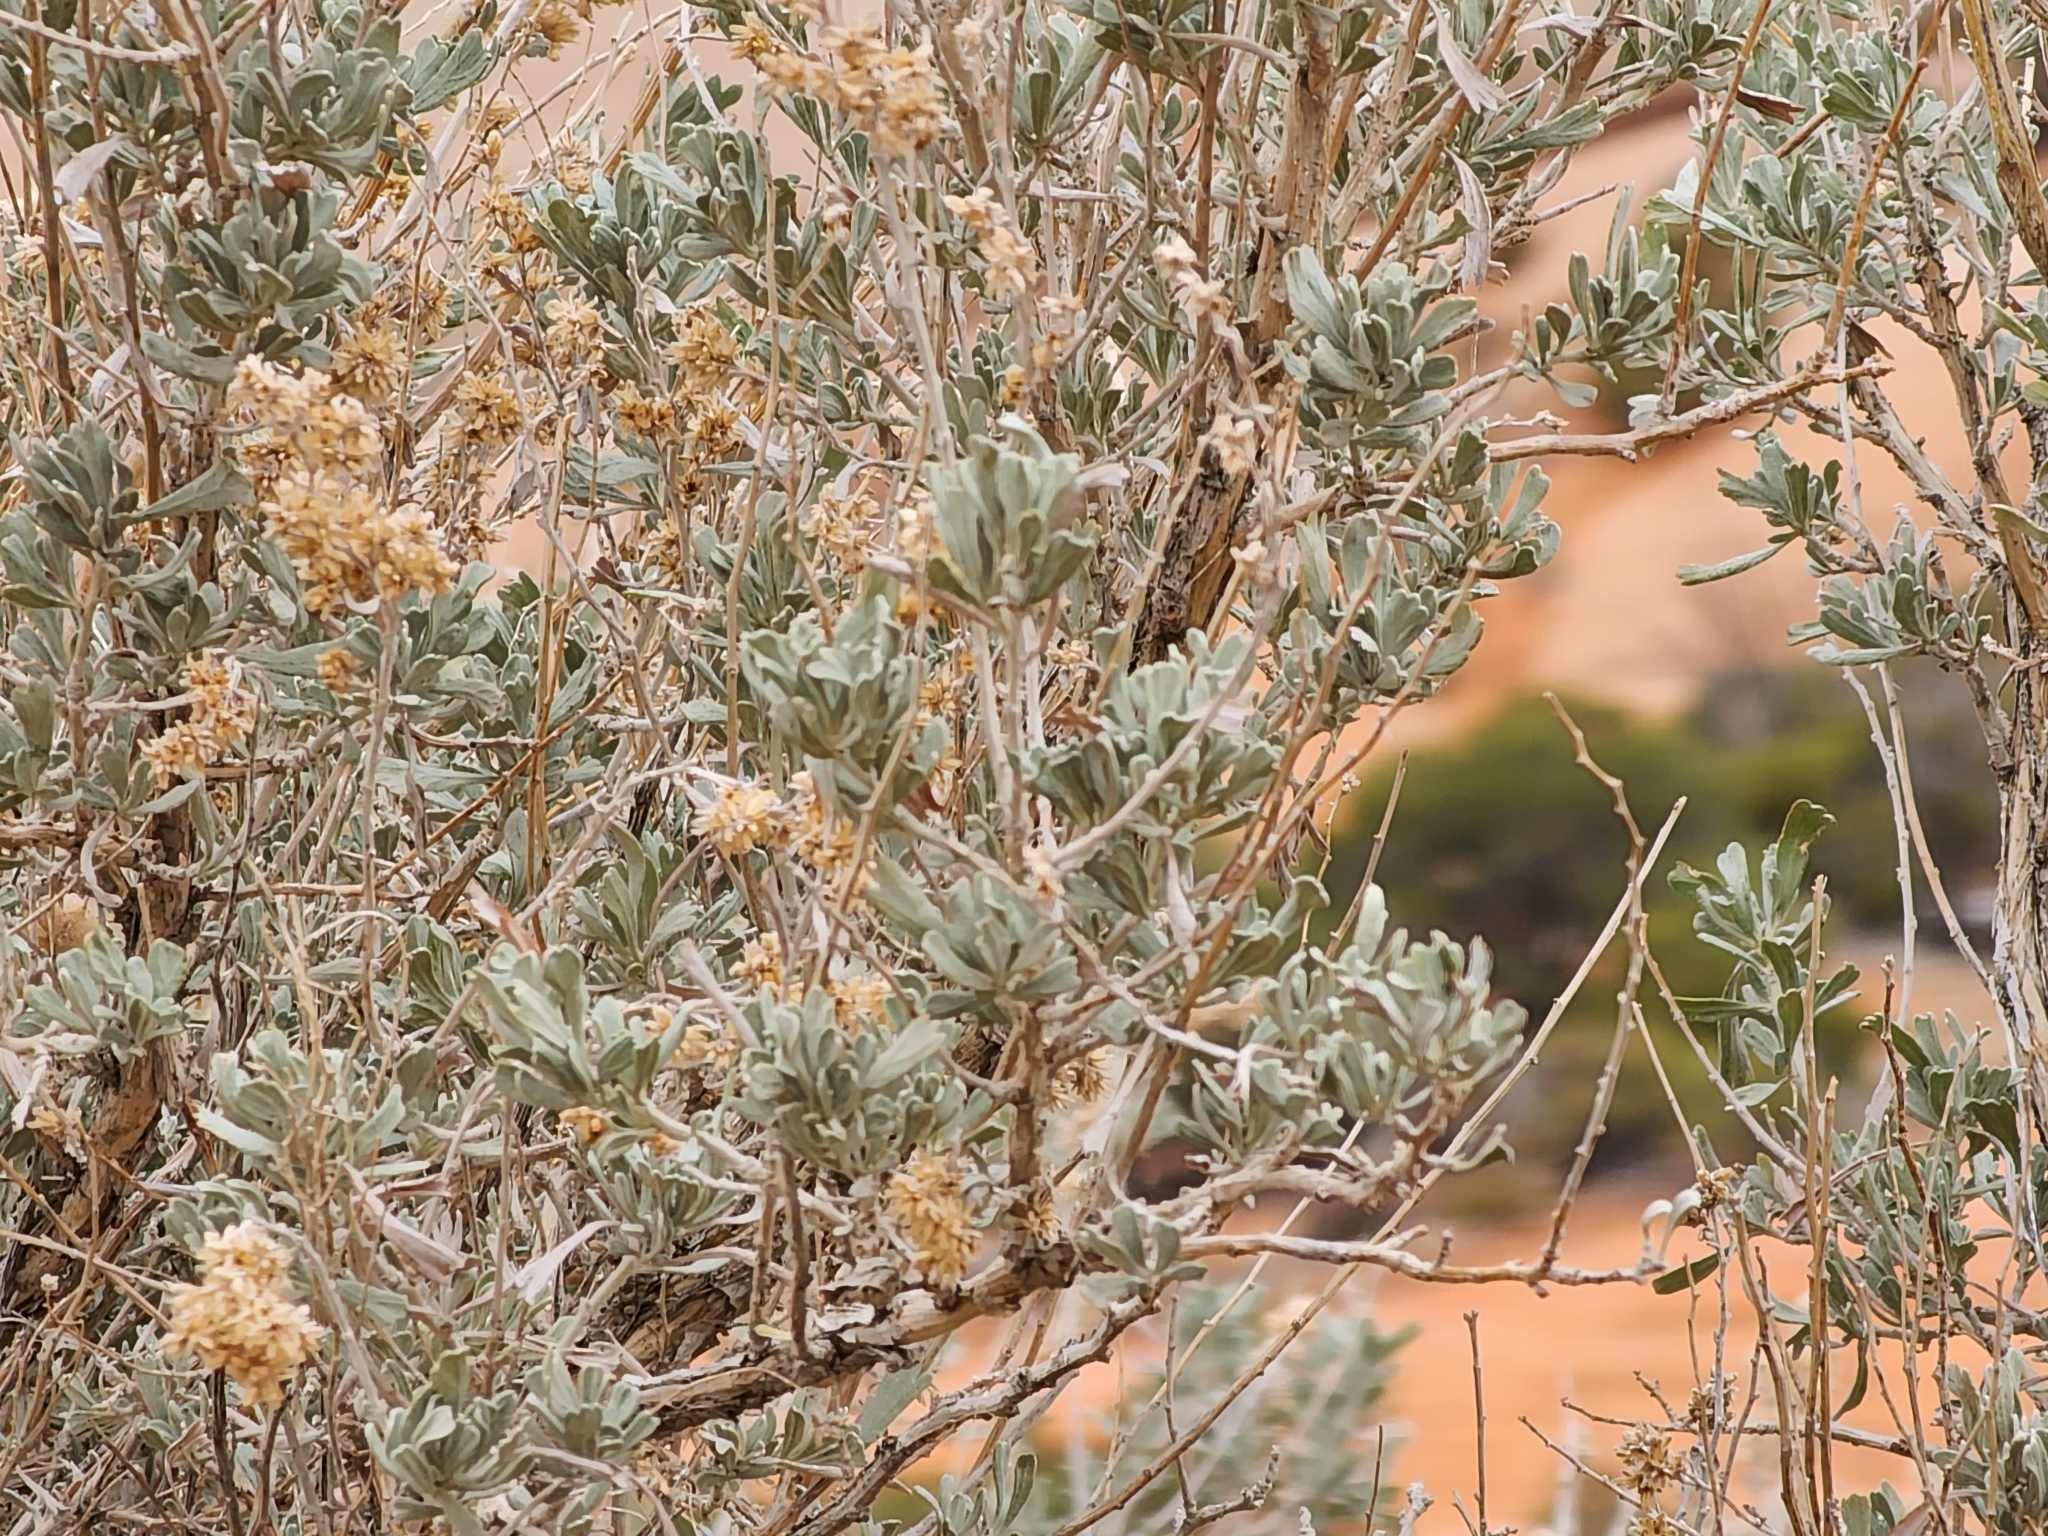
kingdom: Plantae
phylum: Tracheophyta
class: Magnoliopsida
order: Asterales
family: Asteraceae
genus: Artemisia
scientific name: Artemisia tridentata
